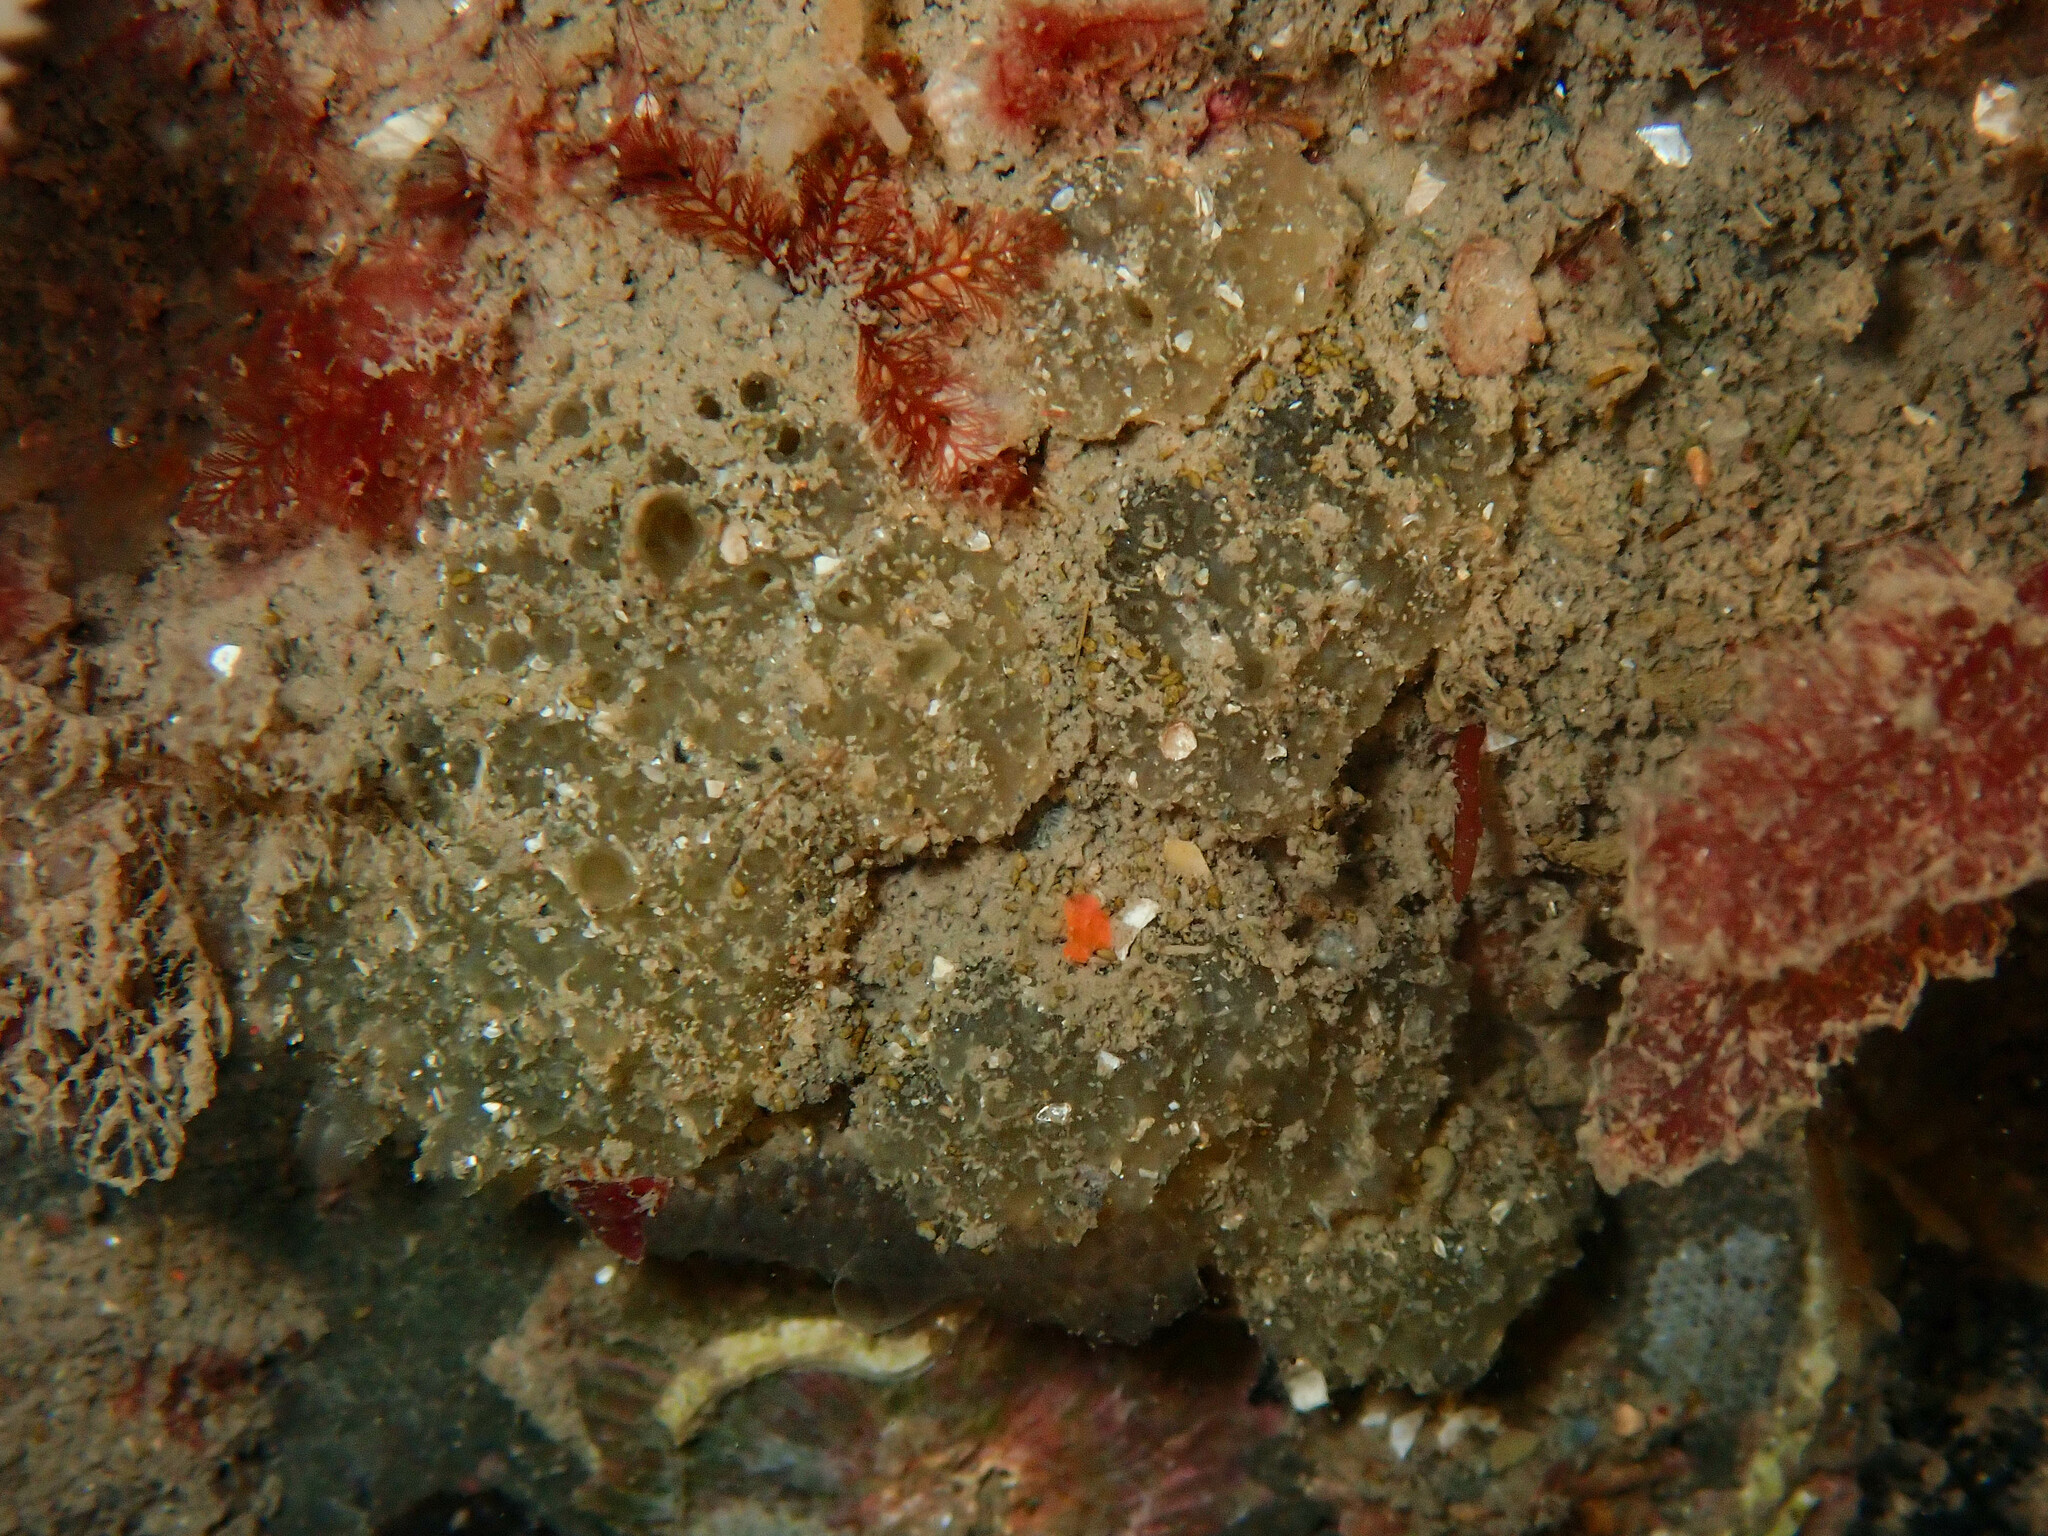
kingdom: Animalia
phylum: Chordata
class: Ascidiacea
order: Aplousobranchia
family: Polyclinidae
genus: Polyclinum
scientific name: Polyclinum aurantium
